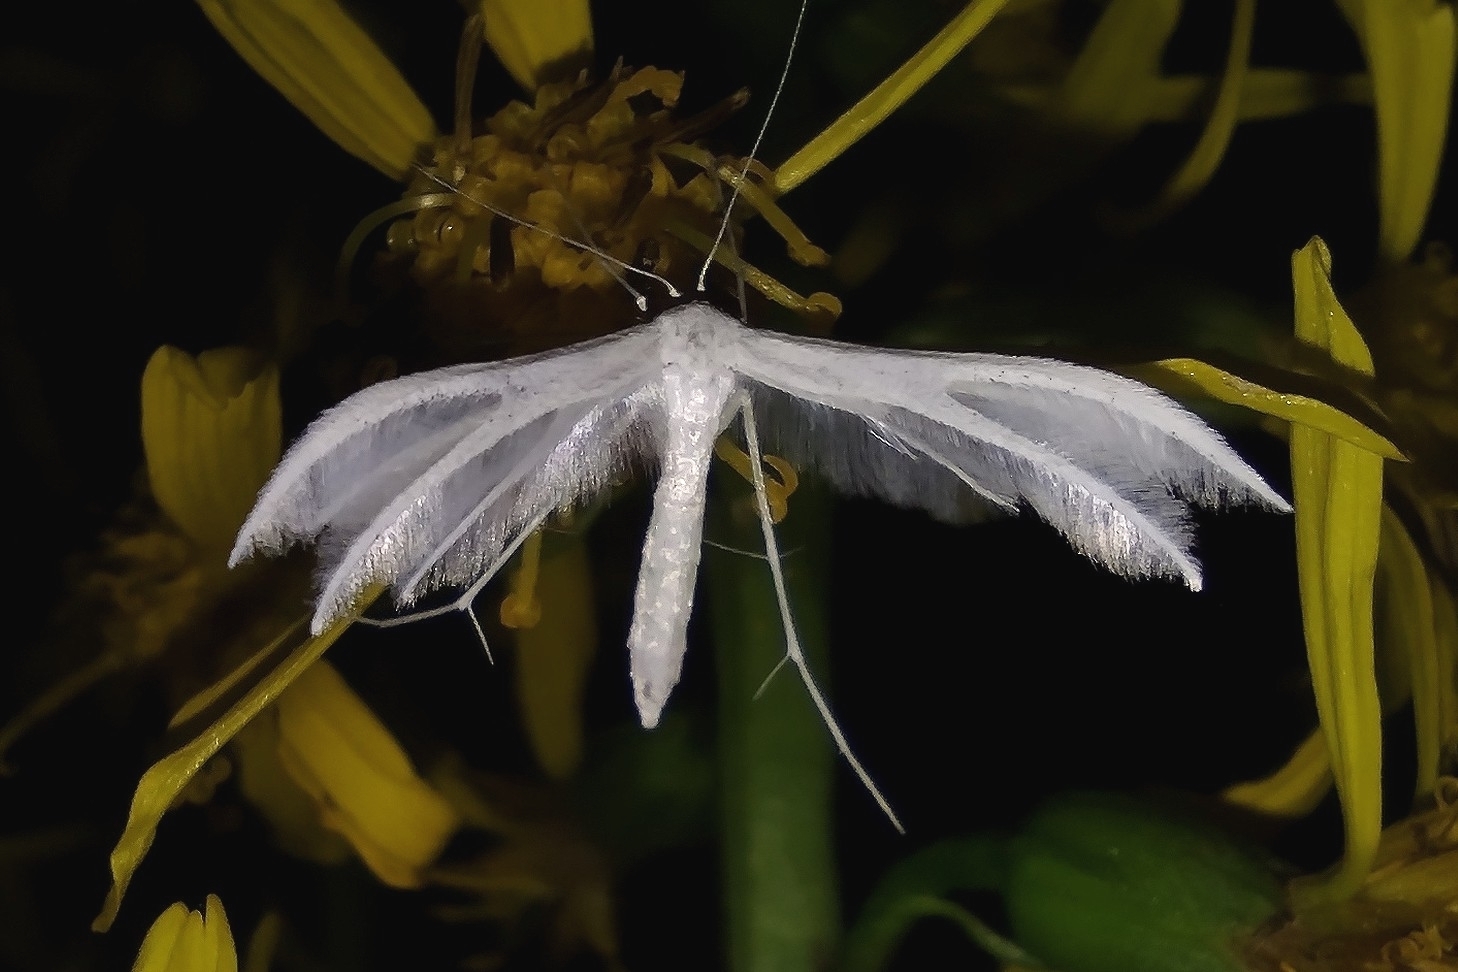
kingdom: Animalia
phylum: Arthropoda
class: Insecta
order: Lepidoptera
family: Pterophoridae
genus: Pterophorus
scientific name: Pterophorus pentadactyla
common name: White plume moth
